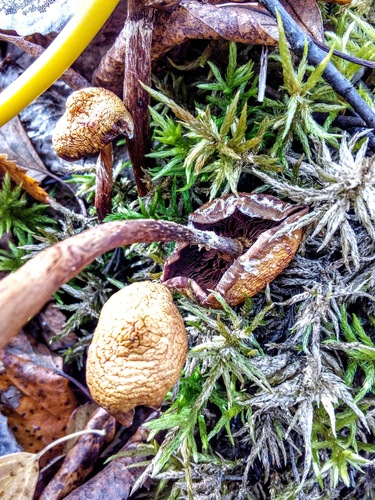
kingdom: Fungi
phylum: Basidiomycota
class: Agaricomycetes
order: Agaricales
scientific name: Agaricales
